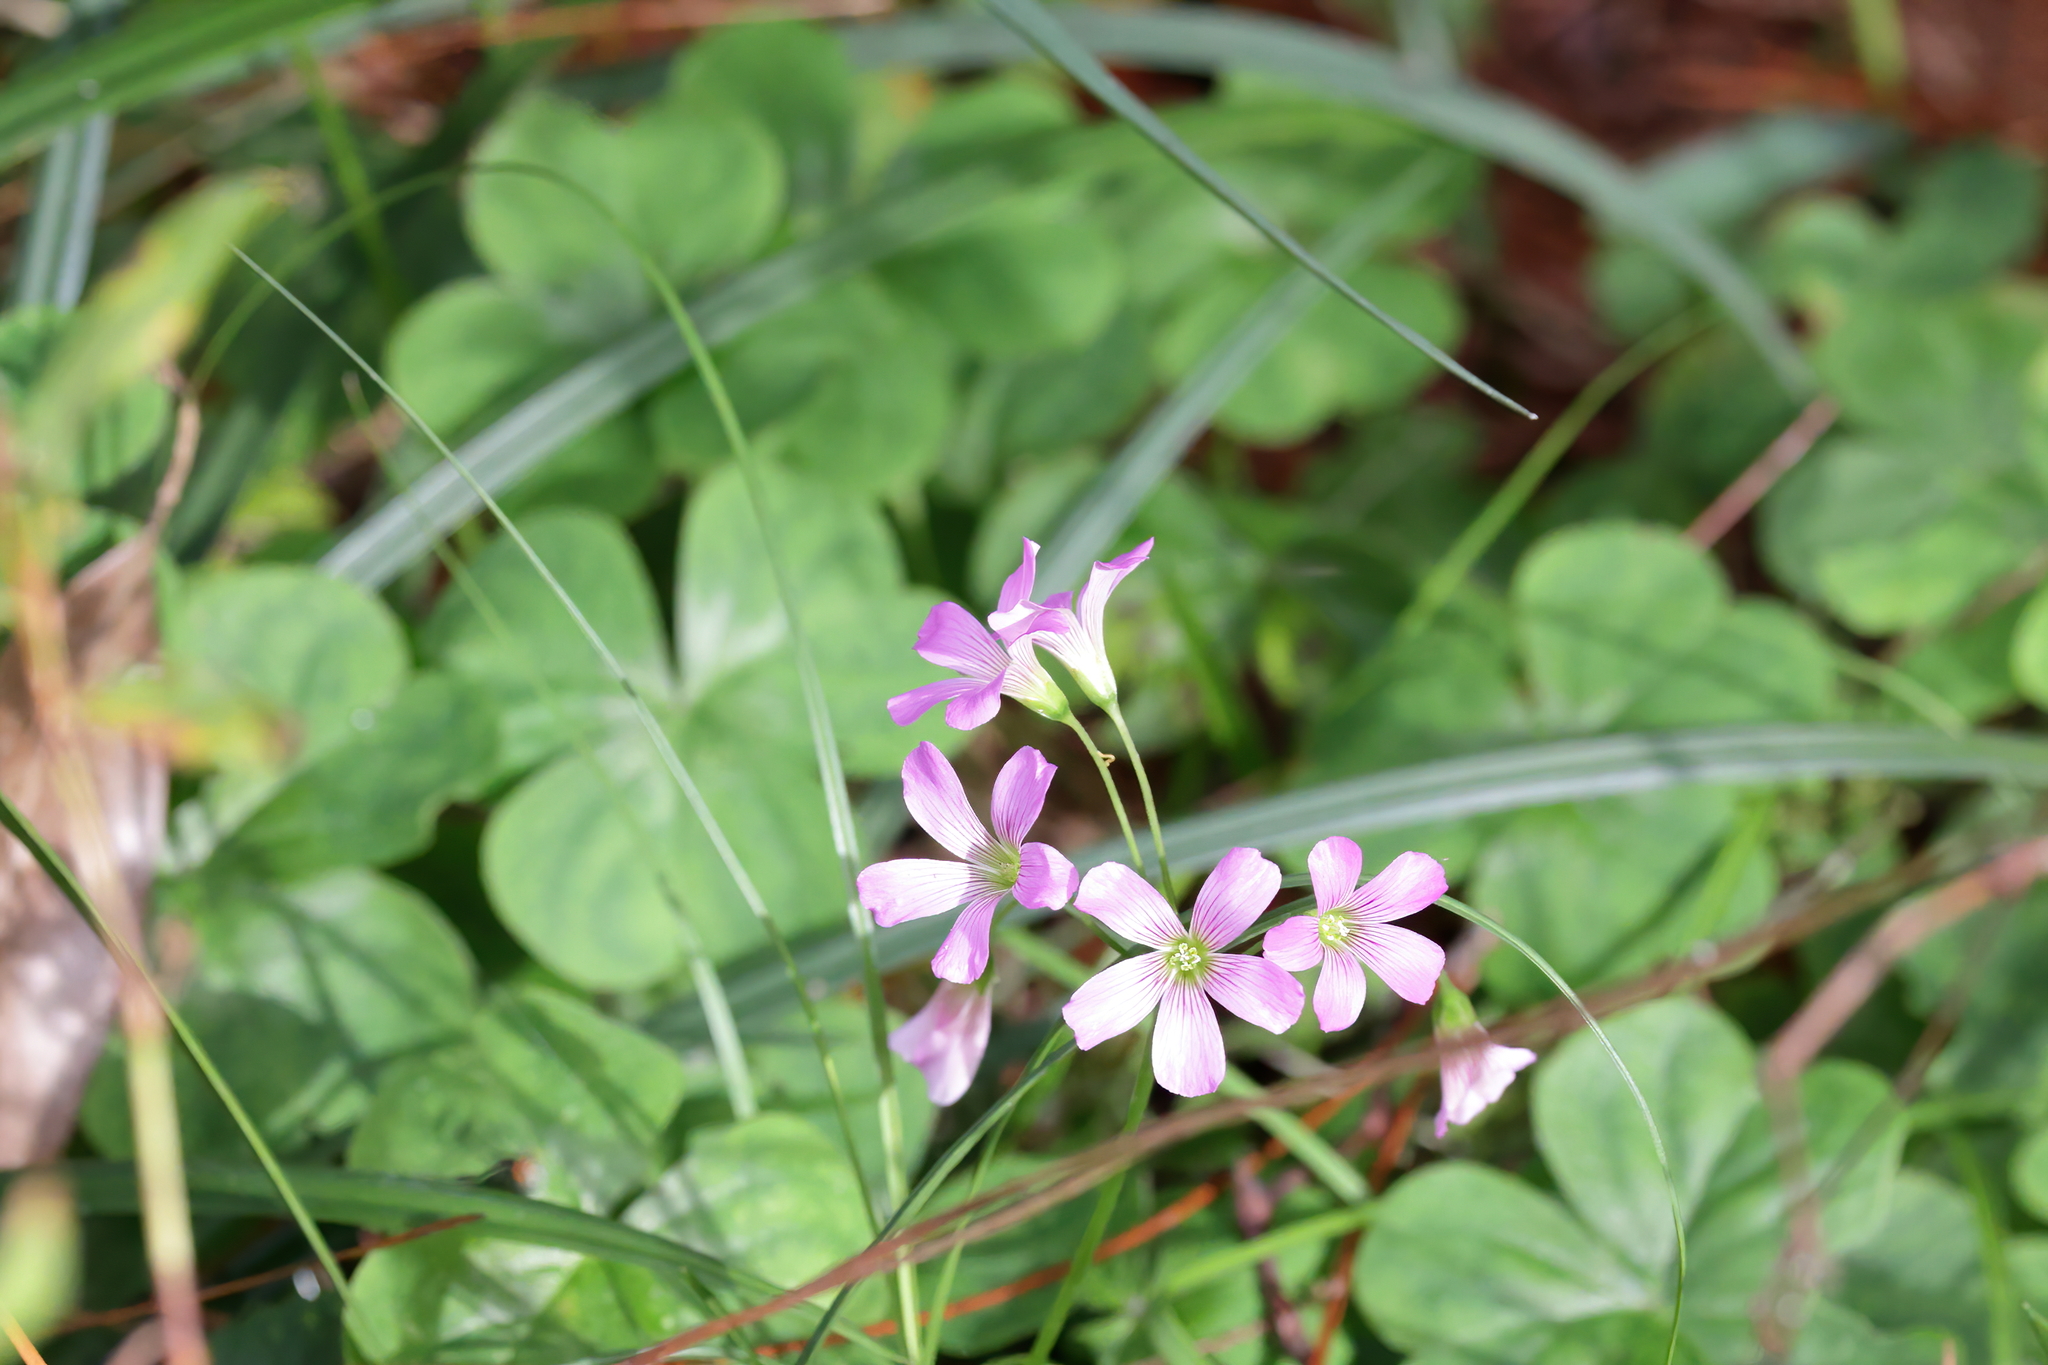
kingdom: Plantae
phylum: Tracheophyta
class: Magnoliopsida
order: Oxalidales
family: Oxalidaceae
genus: Oxalis
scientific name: Oxalis debilis
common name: Large-flowered pink-sorrel
